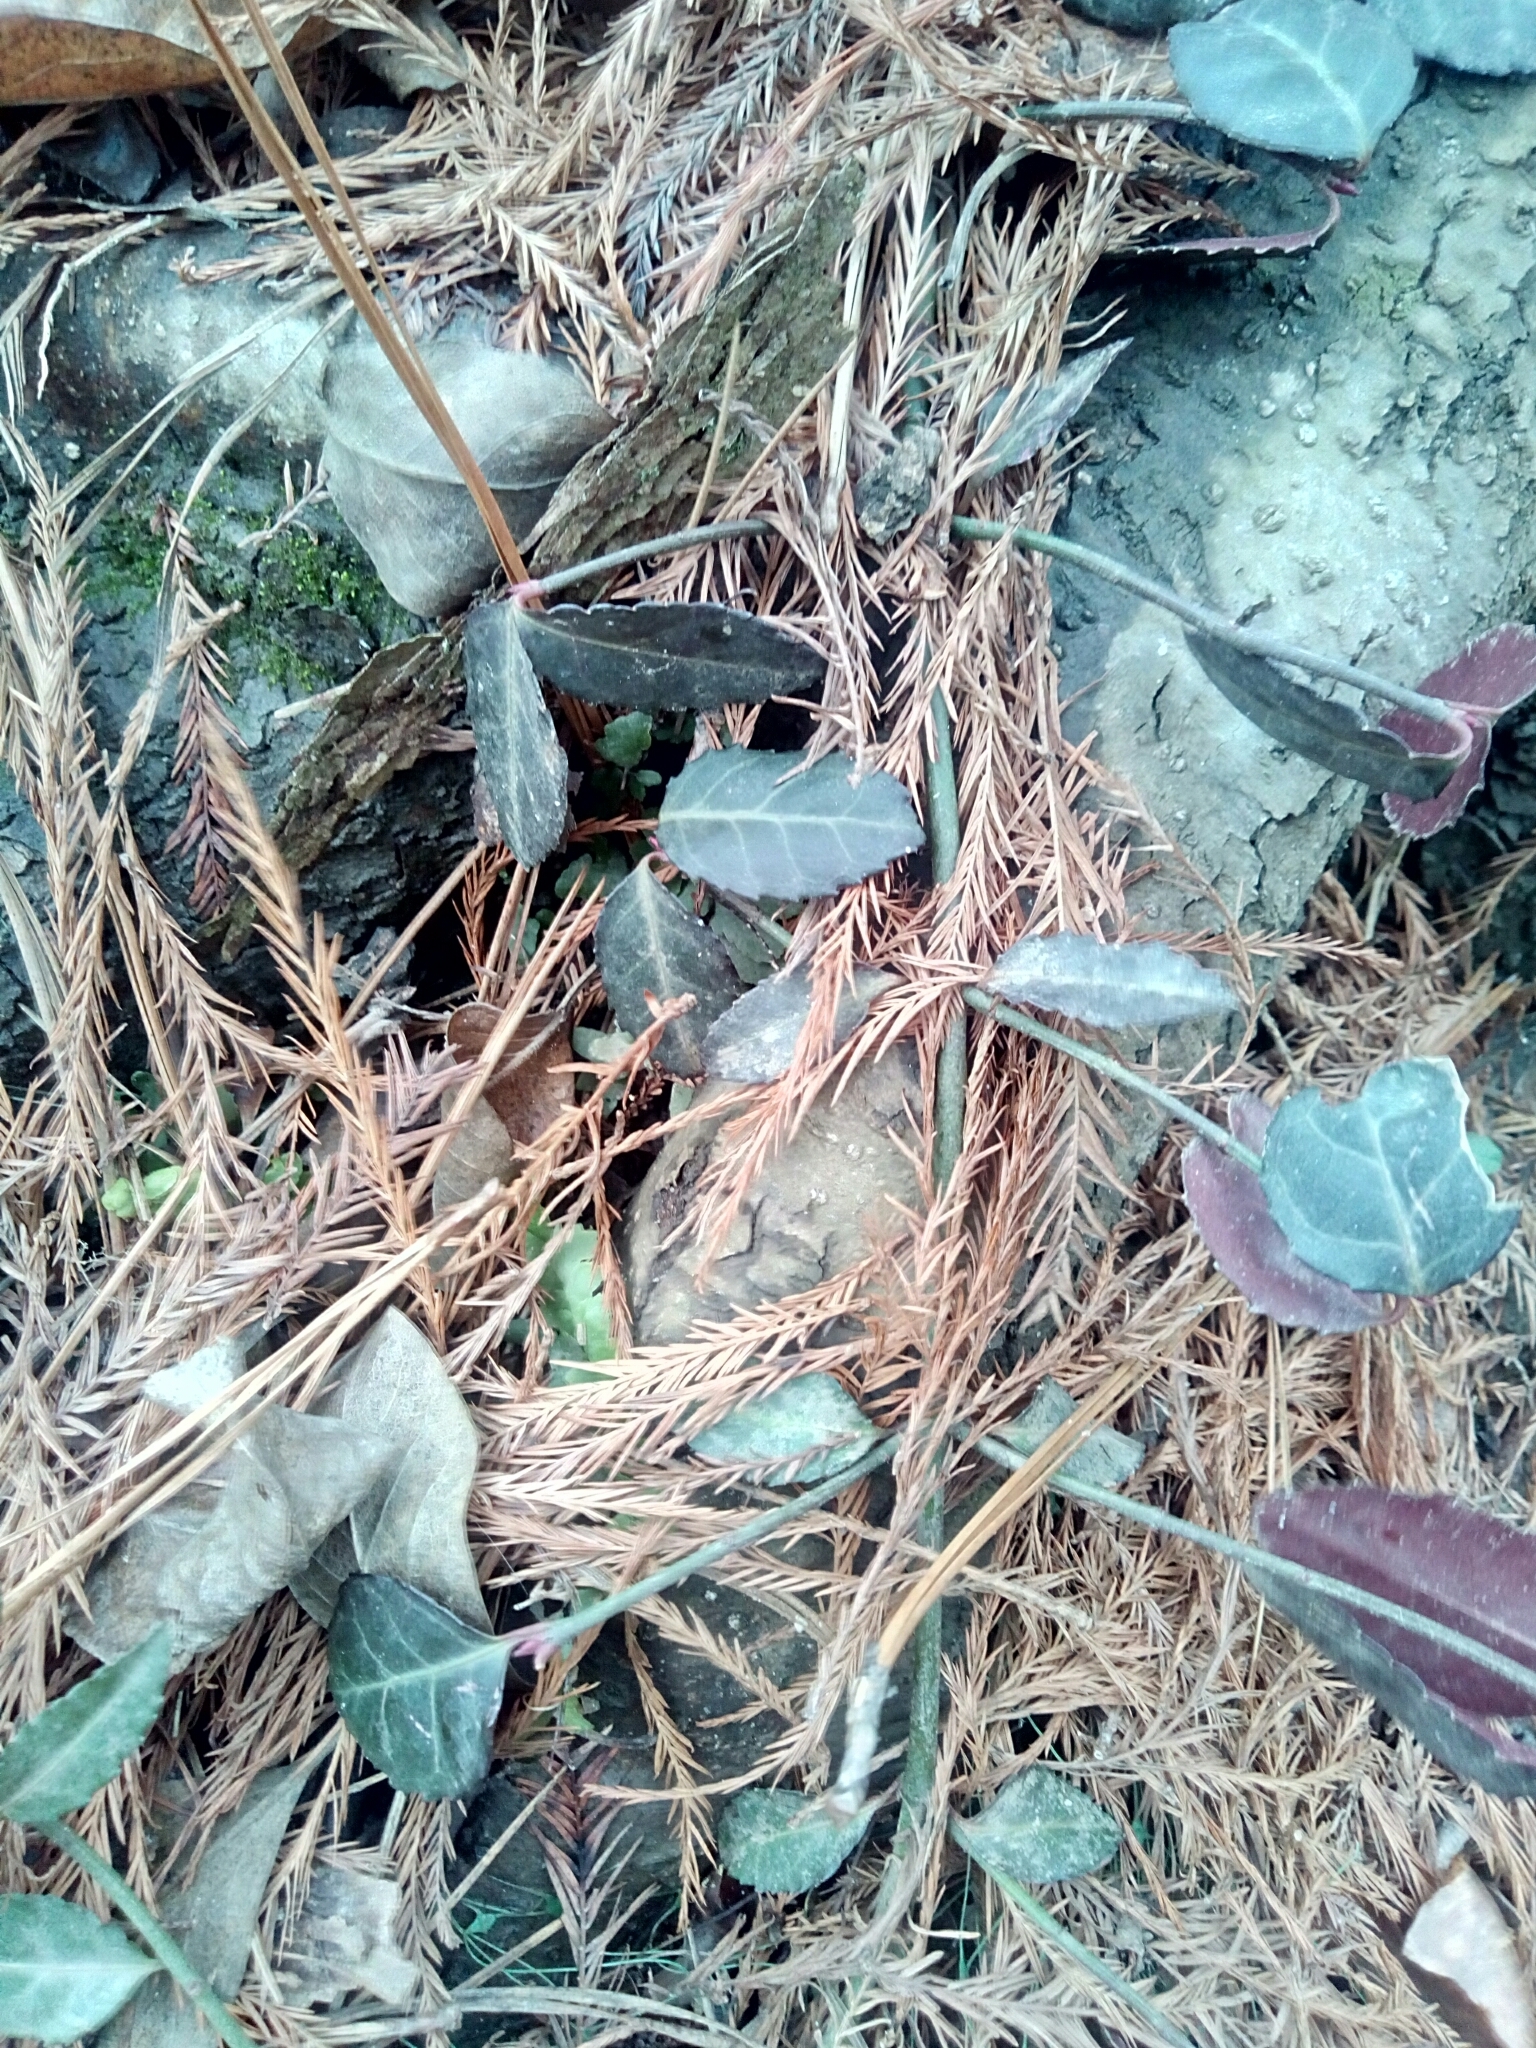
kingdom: Plantae
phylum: Tracheophyta
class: Magnoliopsida
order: Celastrales
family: Celastraceae
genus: Euonymus
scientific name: Euonymus fortunei
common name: Climbing euonymus
